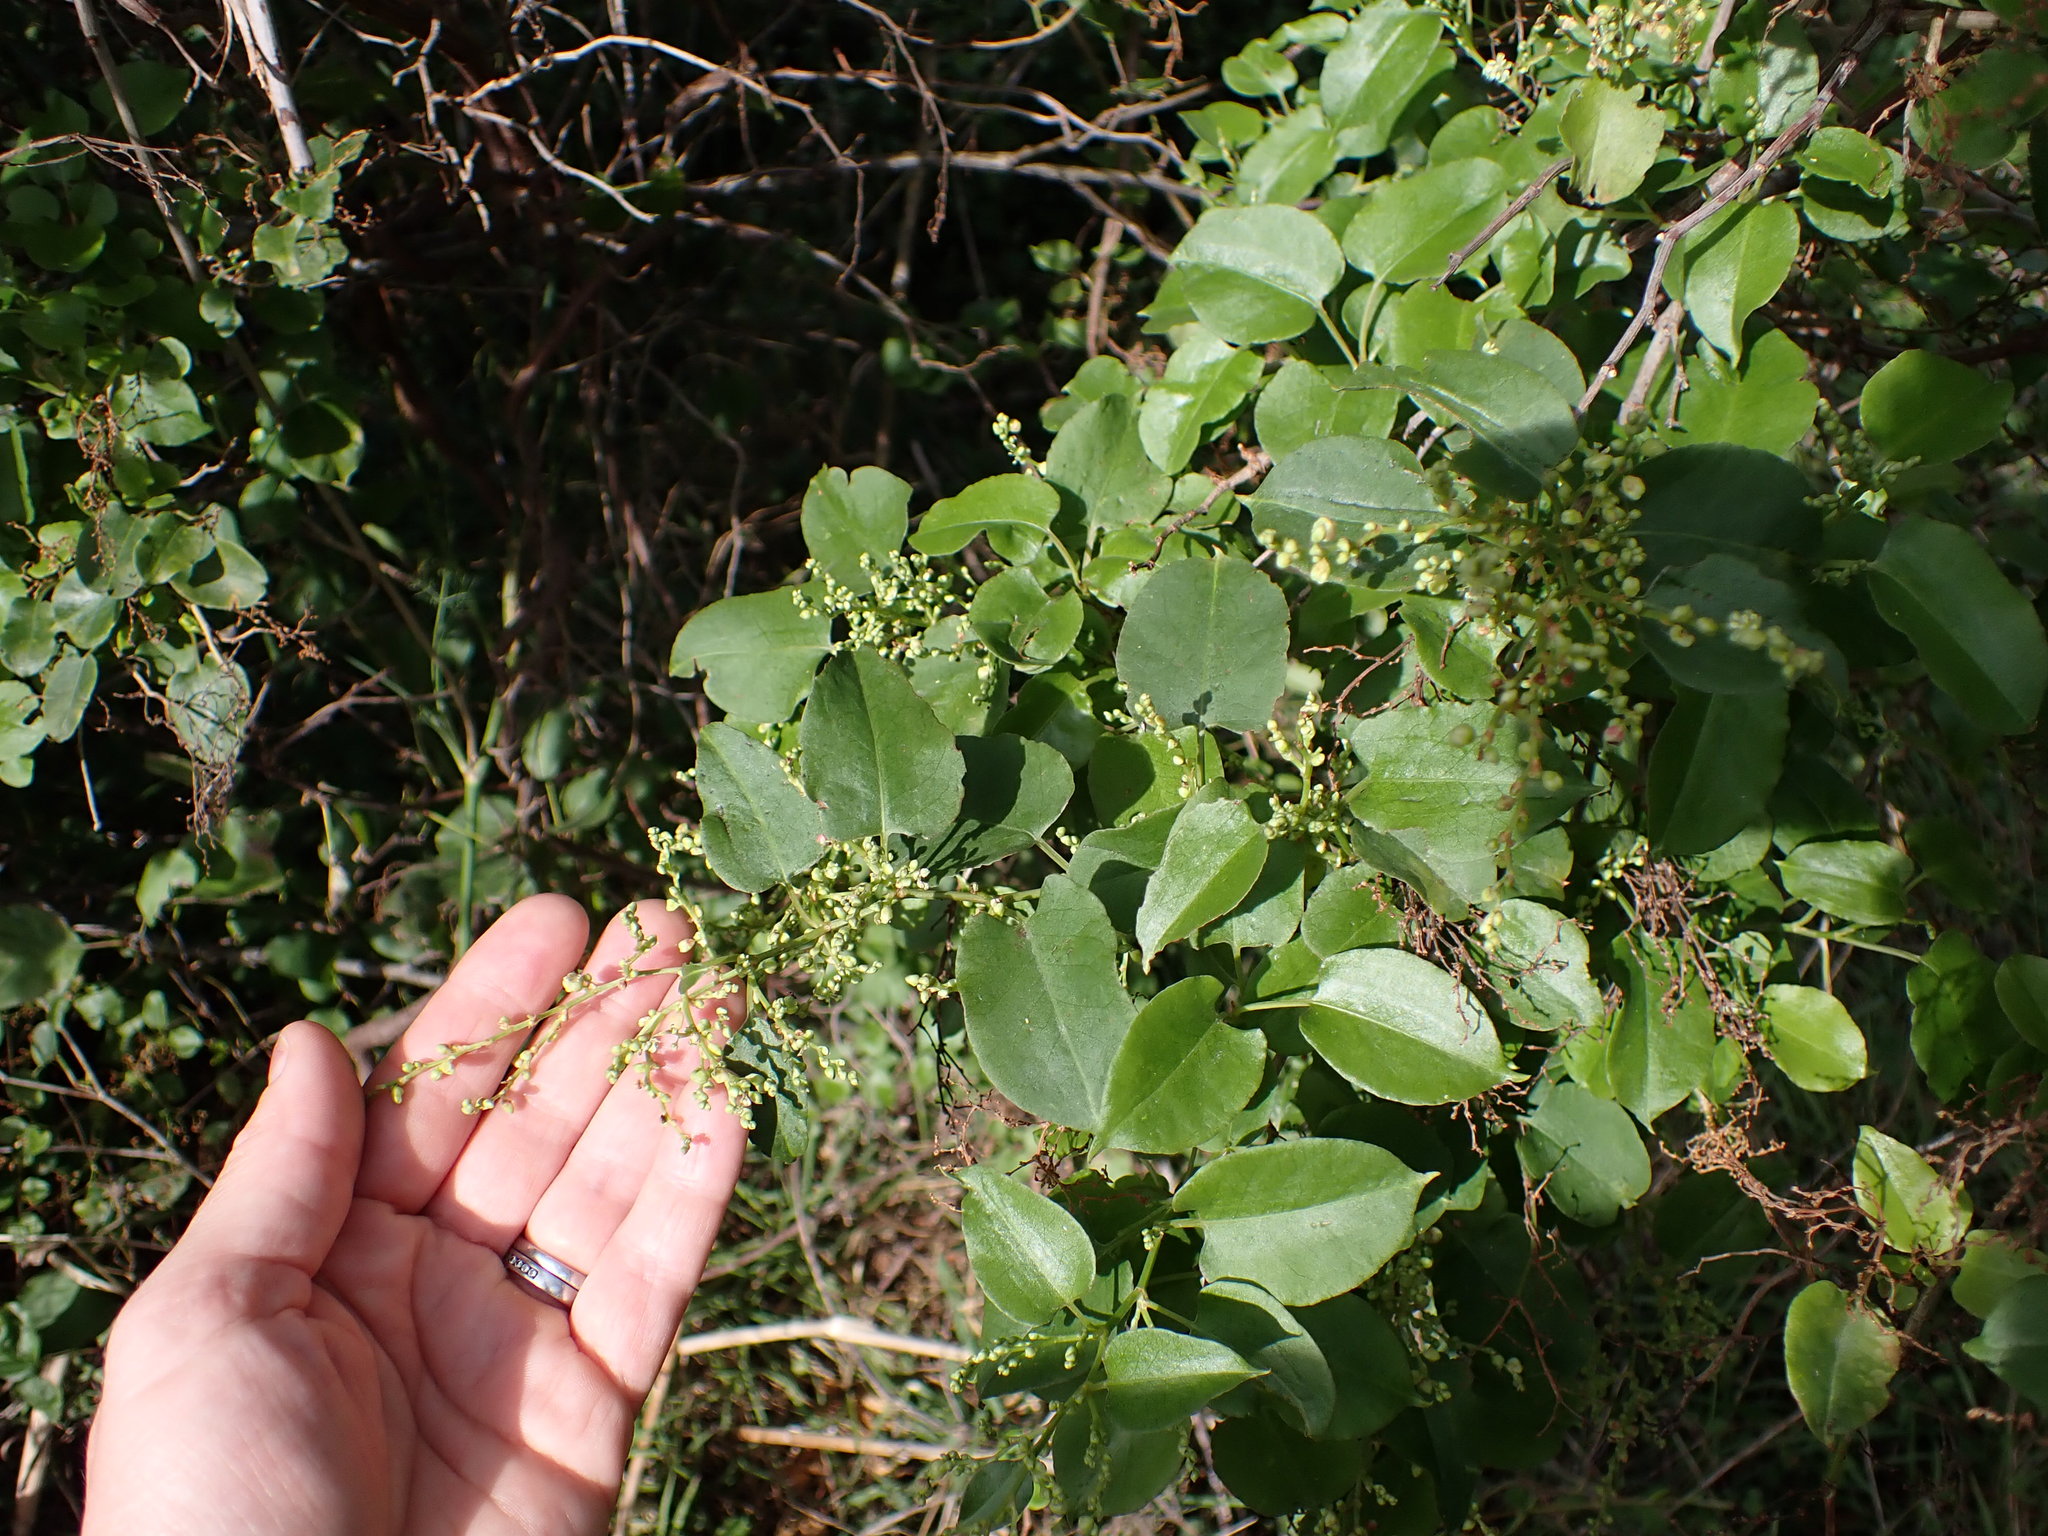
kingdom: Plantae
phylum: Tracheophyta
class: Magnoliopsida
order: Caryophyllales
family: Polygonaceae
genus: Muehlenbeckia
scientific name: Muehlenbeckia australis
